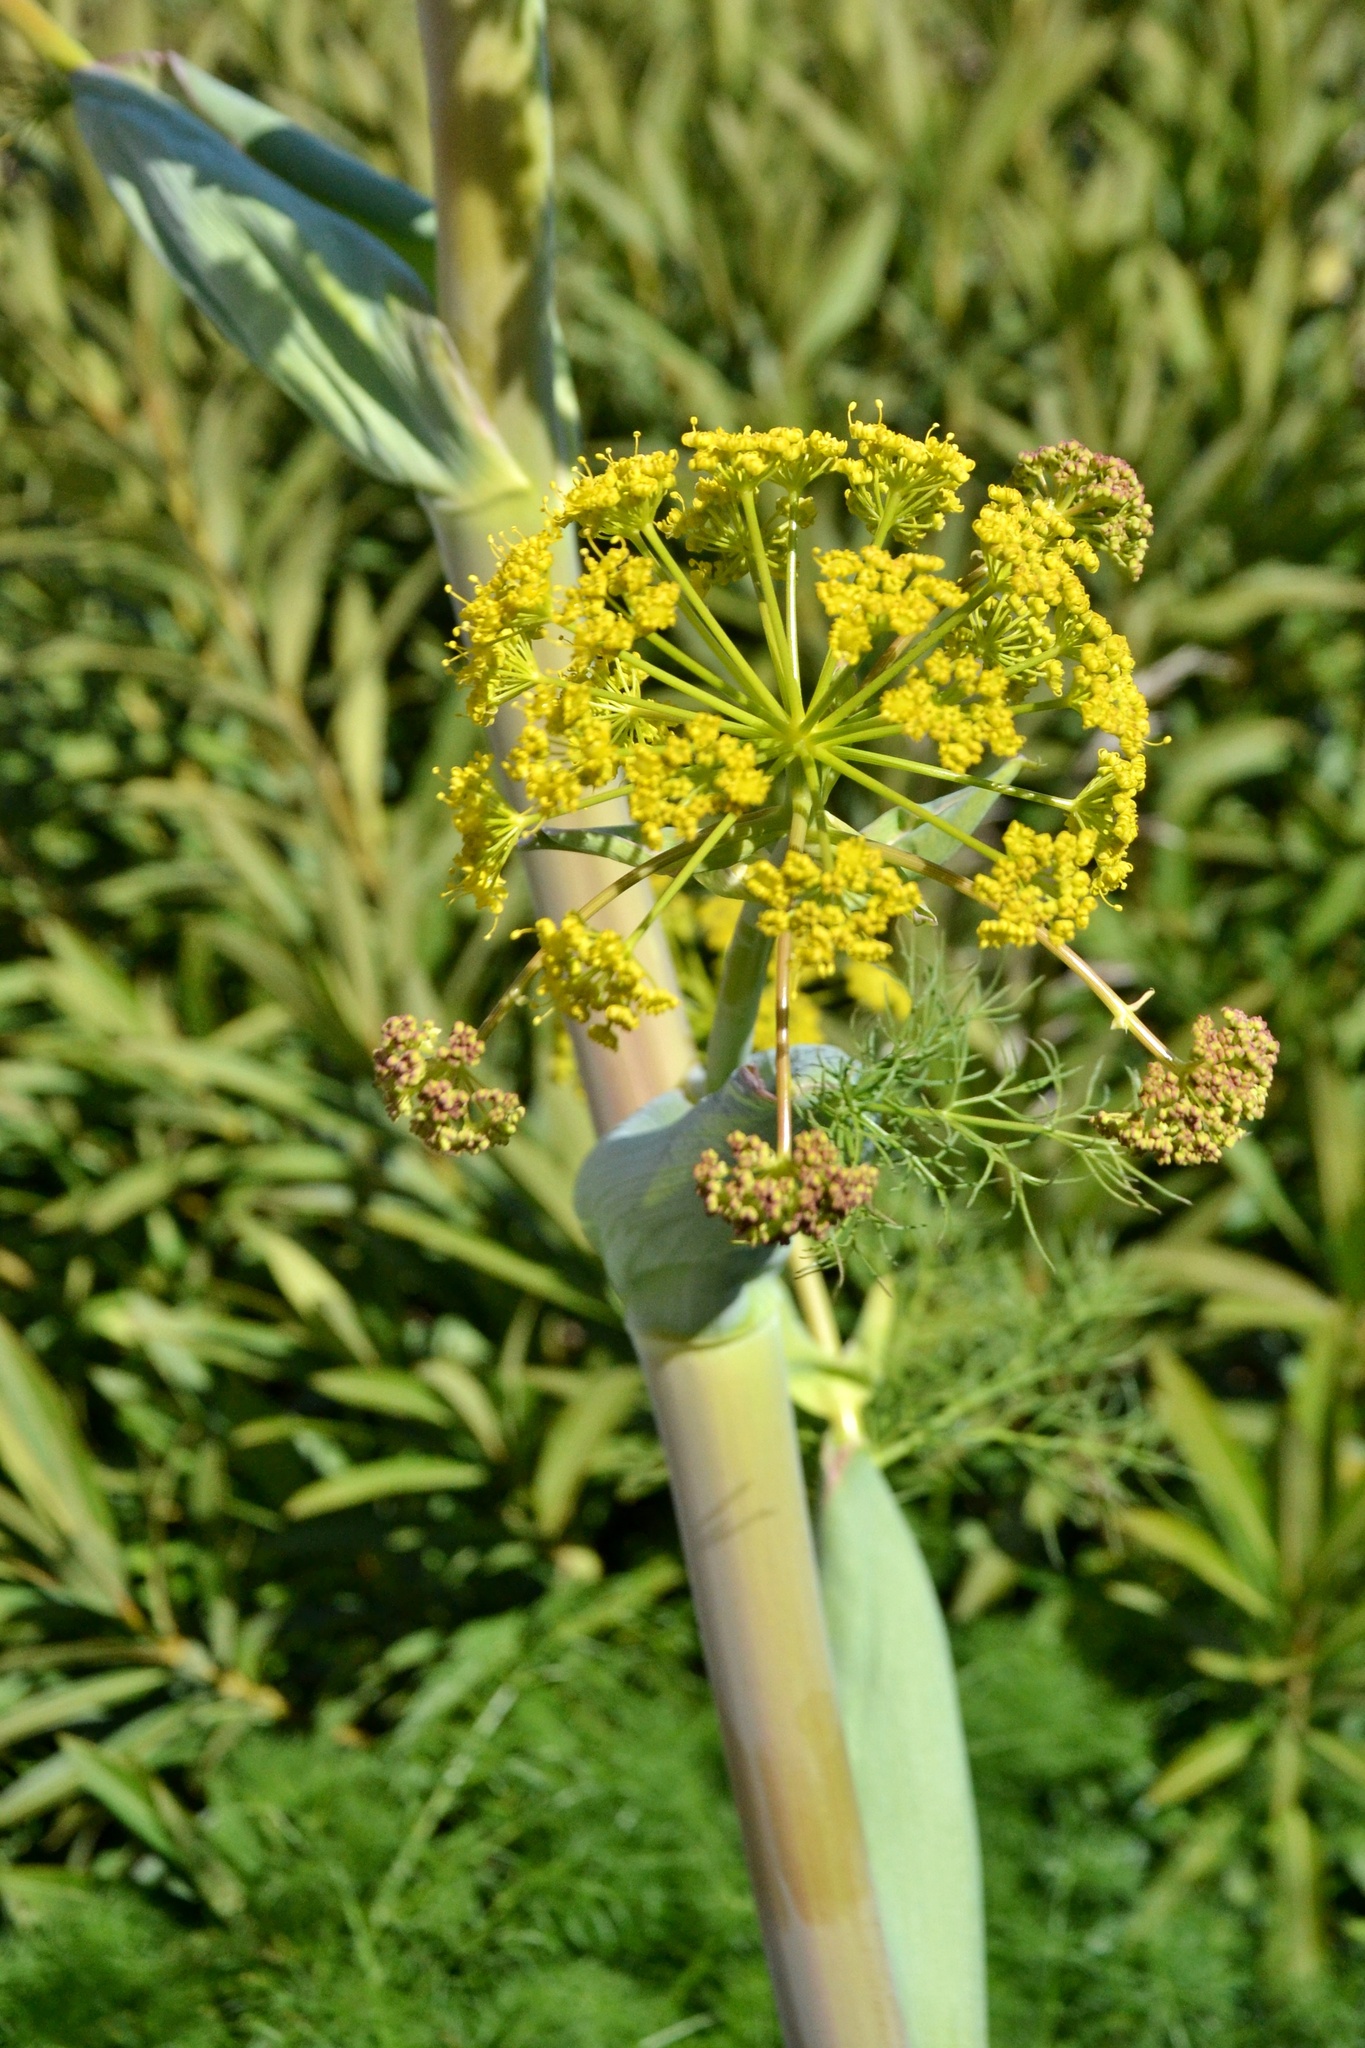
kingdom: Plantae
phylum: Tracheophyta
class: Magnoliopsida
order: Apiales
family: Apiaceae
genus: Ferula
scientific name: Ferula communis
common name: Giant fennel
